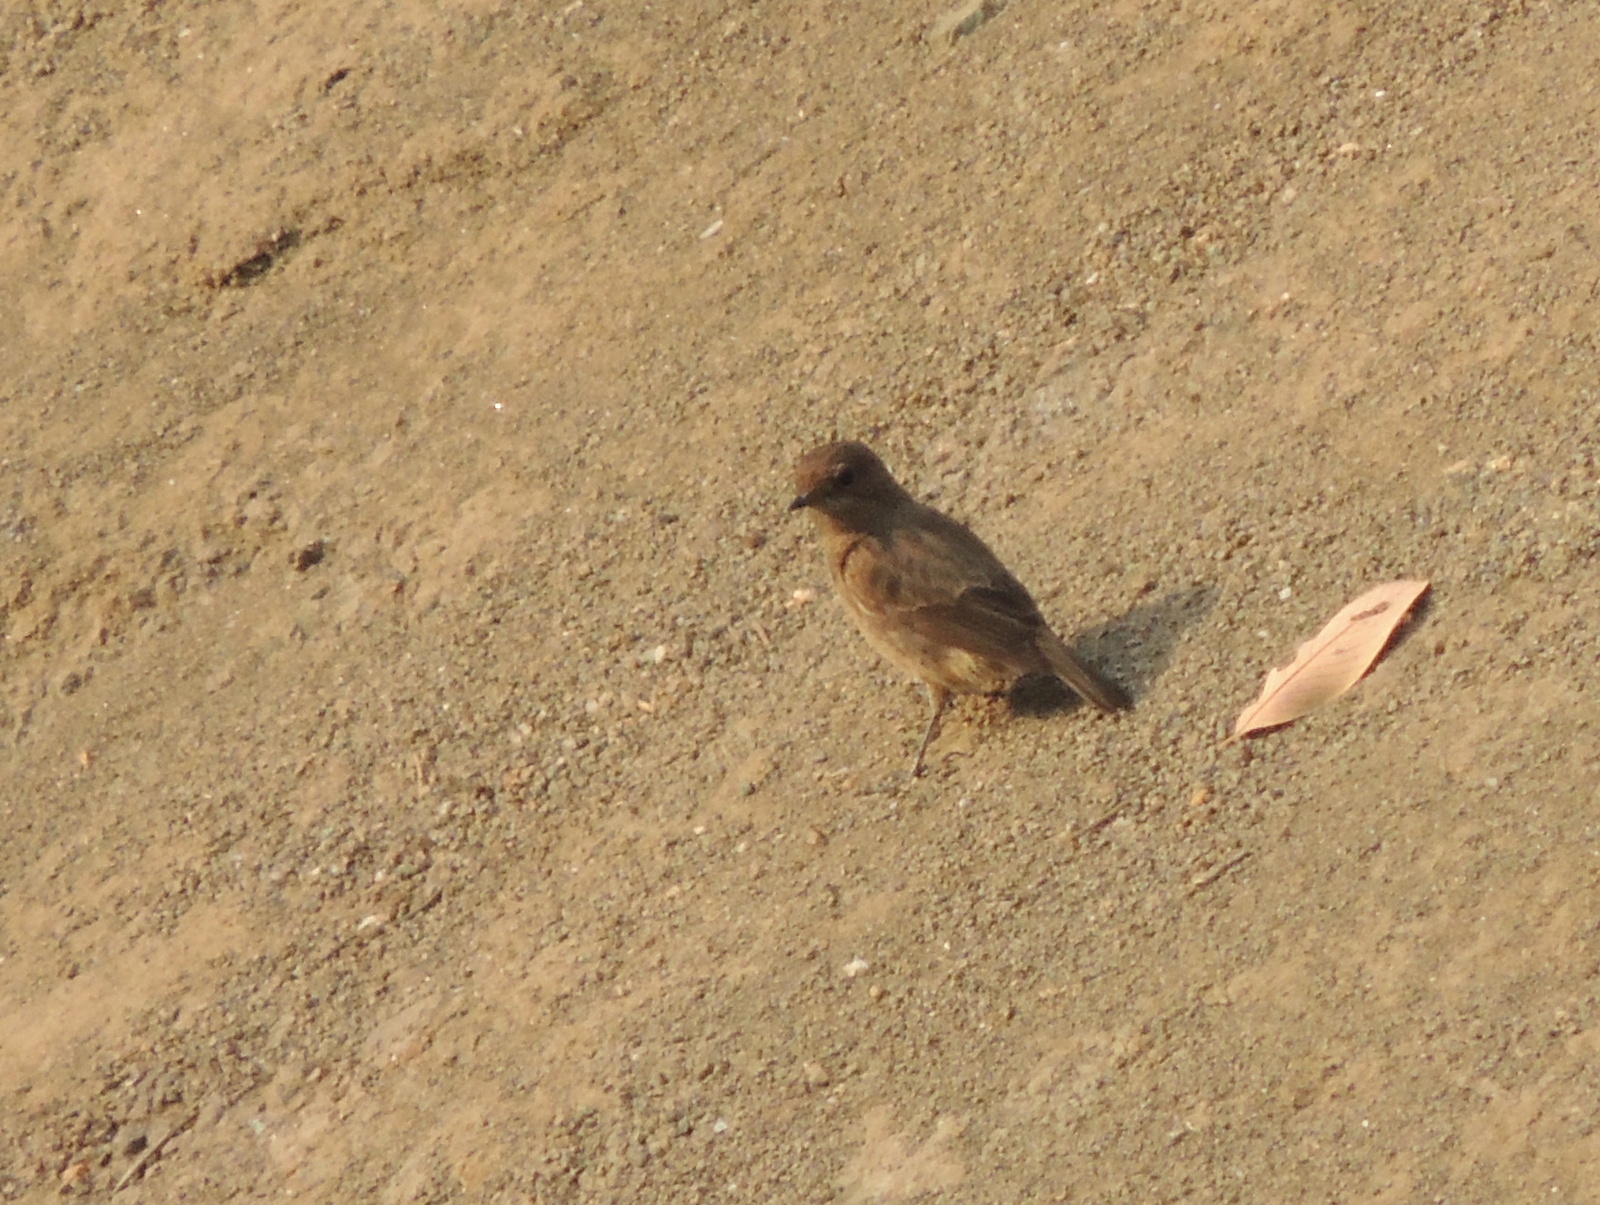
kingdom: Animalia
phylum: Chordata
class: Aves
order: Passeriformes
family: Muscicapidae
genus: Saxicola
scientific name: Saxicola caprata
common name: Pied bush chat
